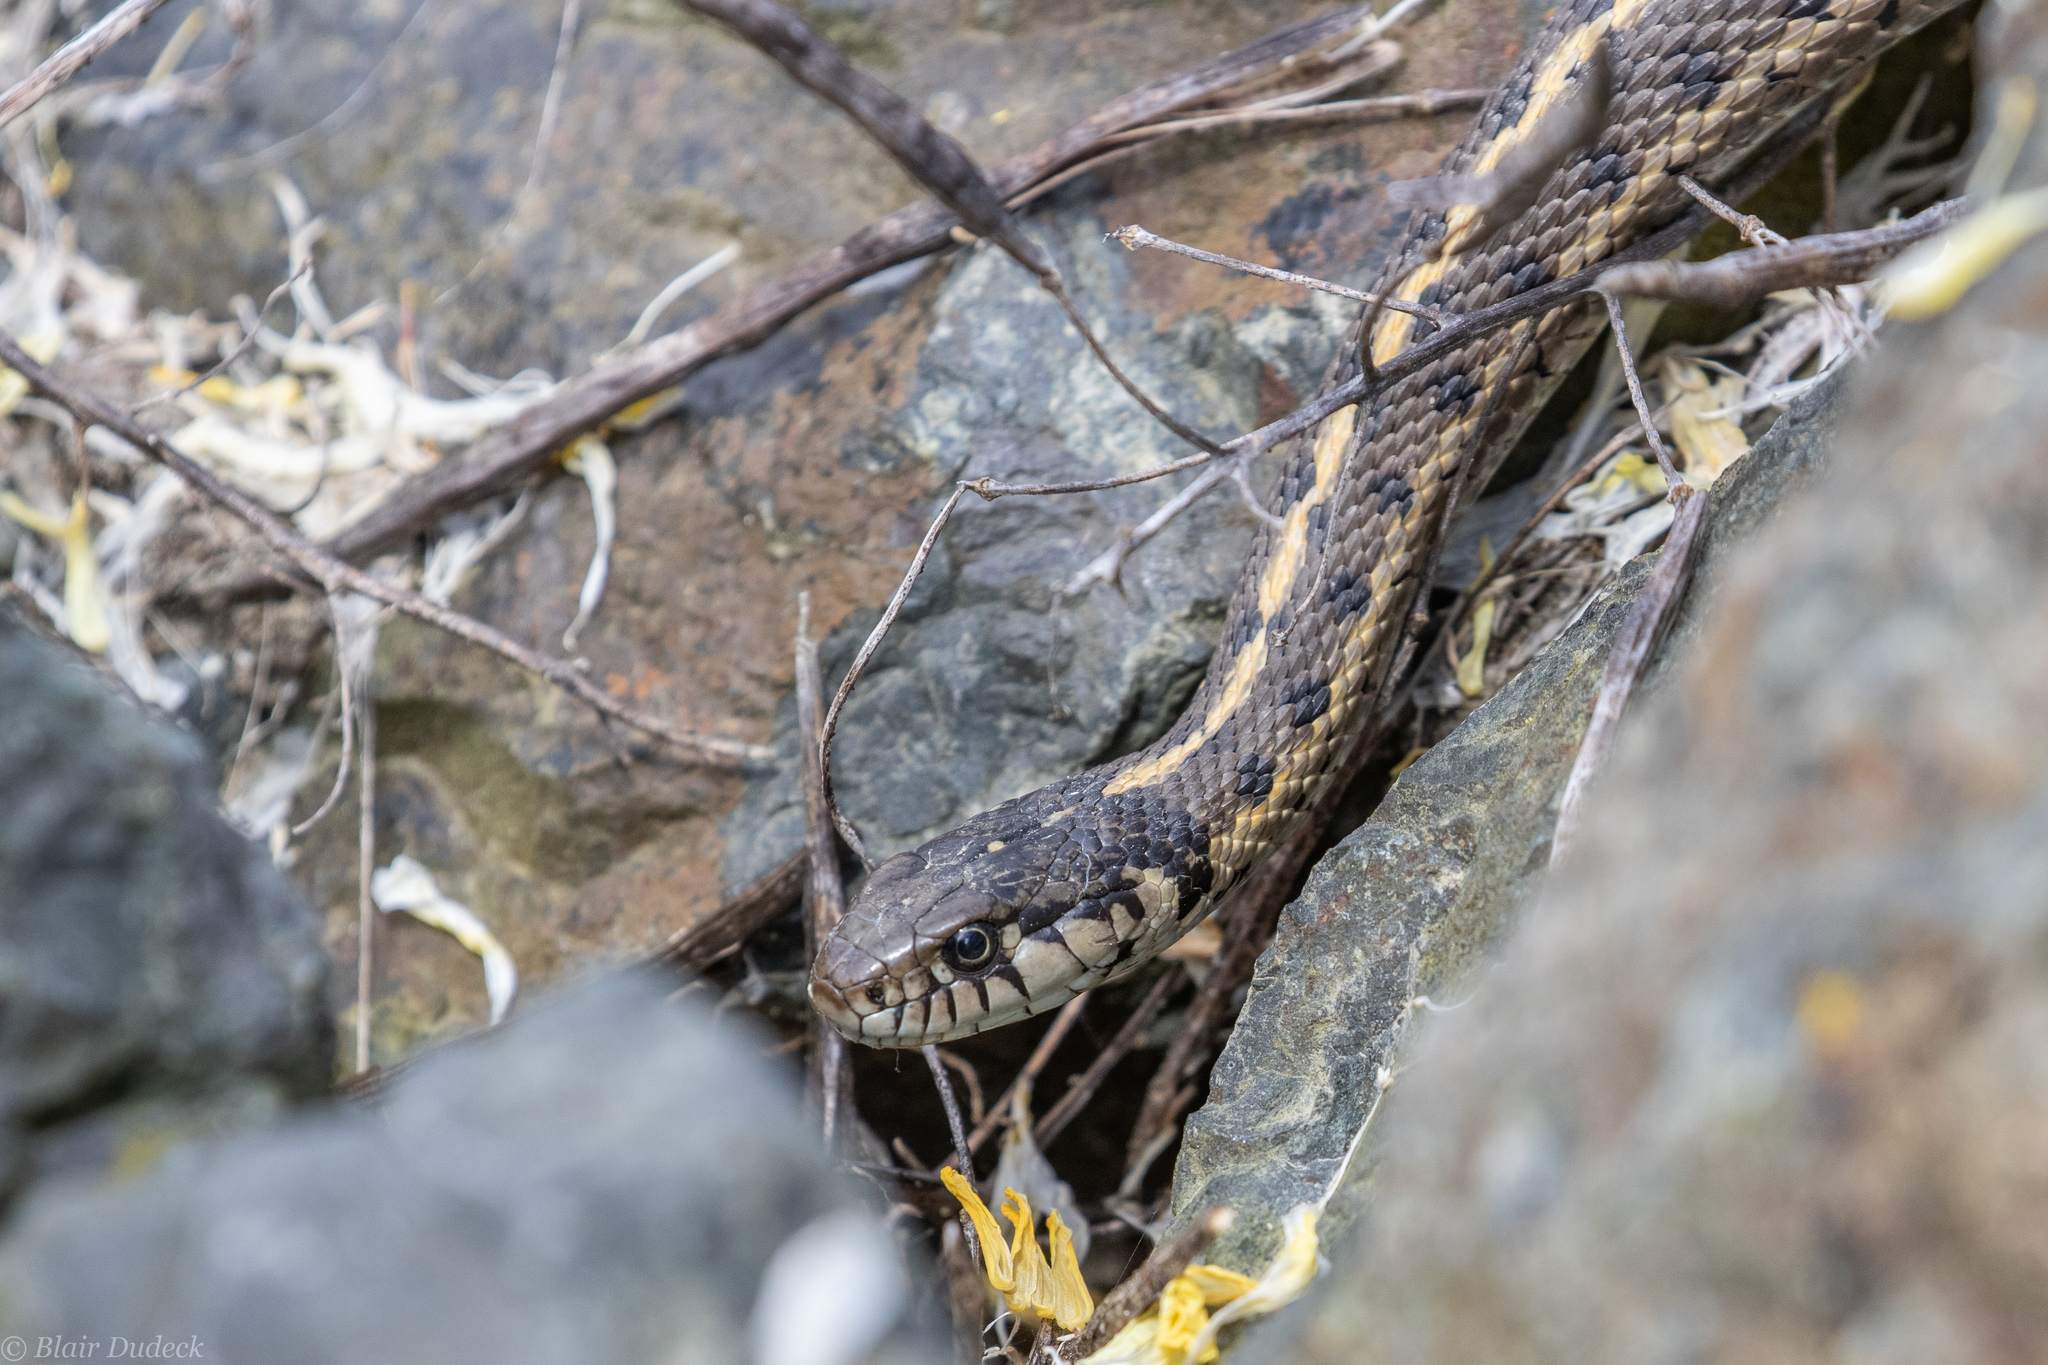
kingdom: Animalia
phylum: Chordata
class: Squamata
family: Colubridae
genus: Thamnophis
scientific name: Thamnophis elegans
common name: Western terrestrial garter snake
